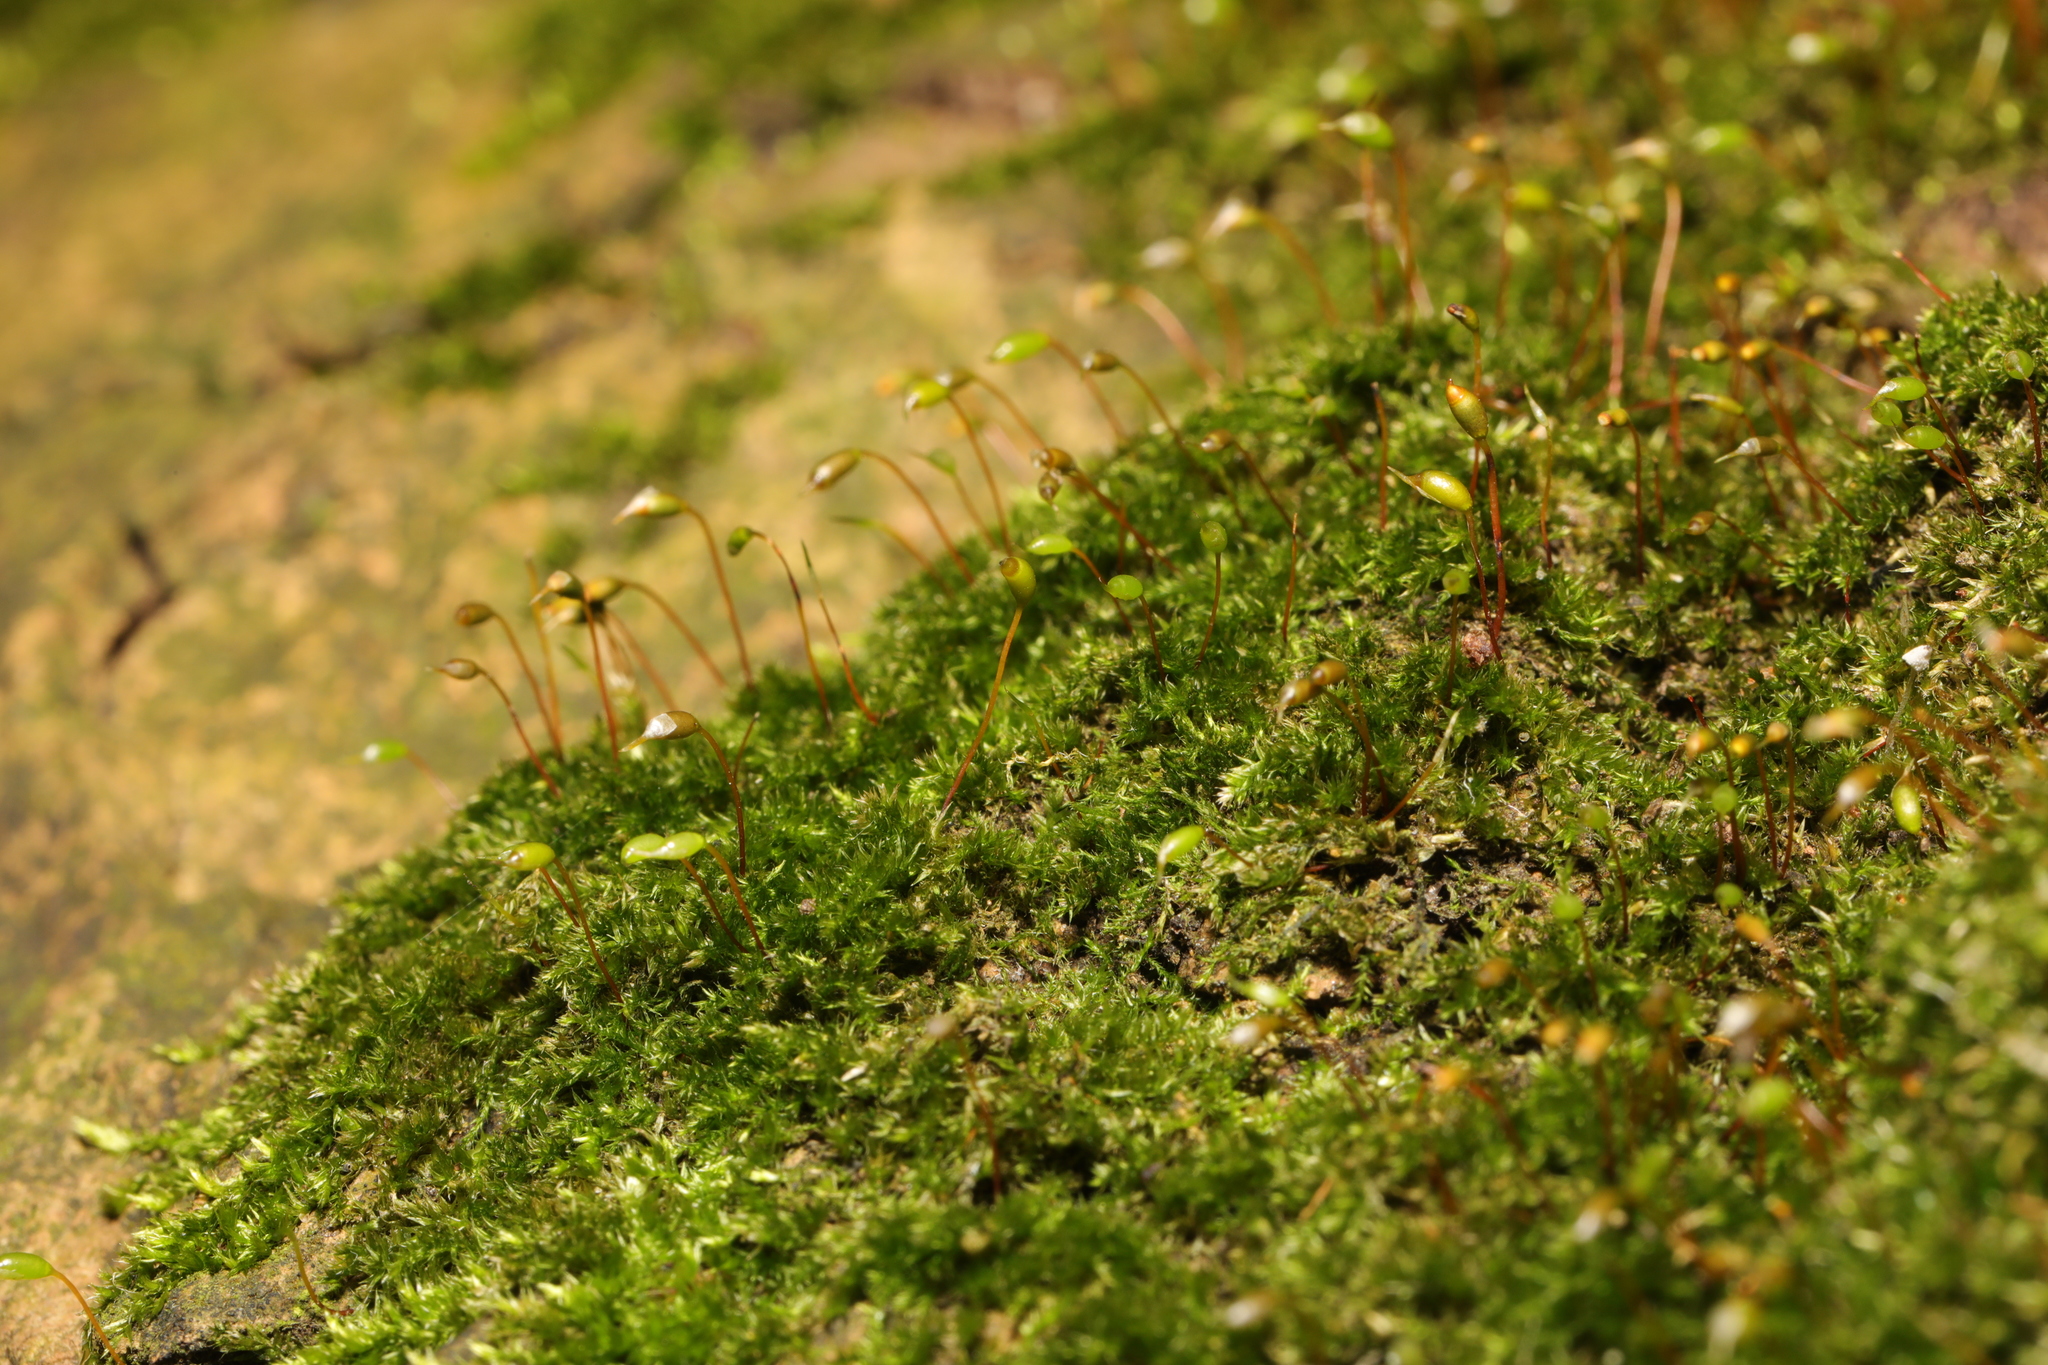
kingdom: Plantae
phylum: Bryophyta
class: Bryopsida
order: Hypnales
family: Brachytheciaceae
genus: Rhynchostegium
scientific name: Rhynchostegium confertum
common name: Clustered feather-moss
